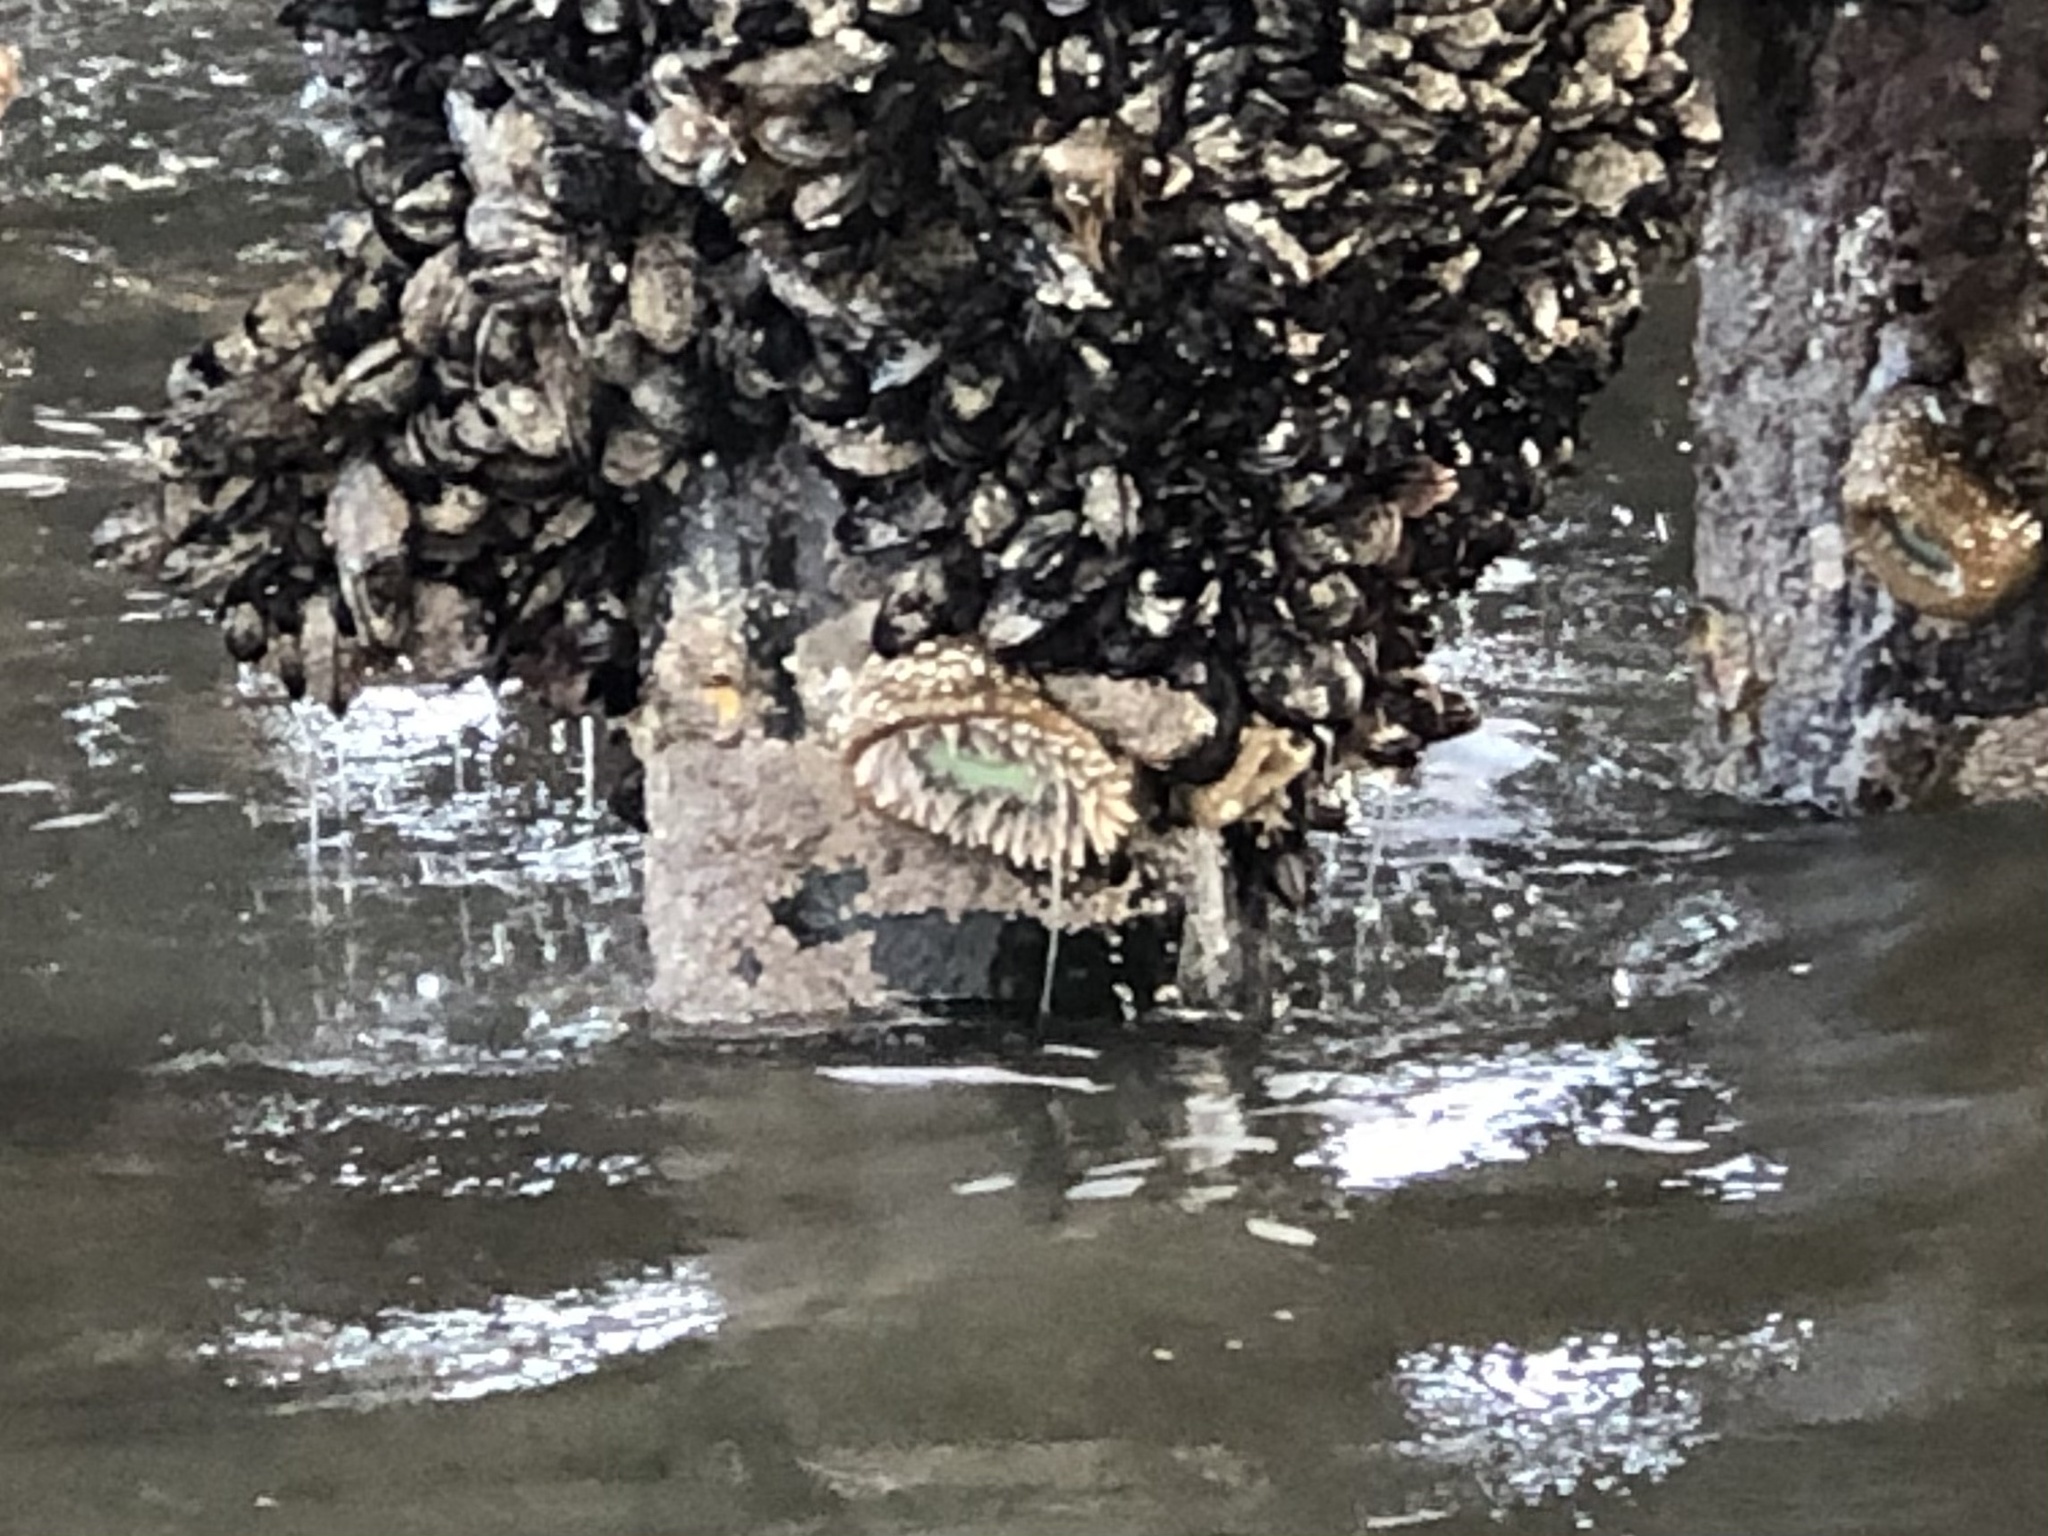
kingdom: Animalia
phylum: Cnidaria
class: Anthozoa
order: Actiniaria
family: Actiniidae
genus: Anthopleura
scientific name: Anthopleura xanthogrammica
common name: Giant green anemone
